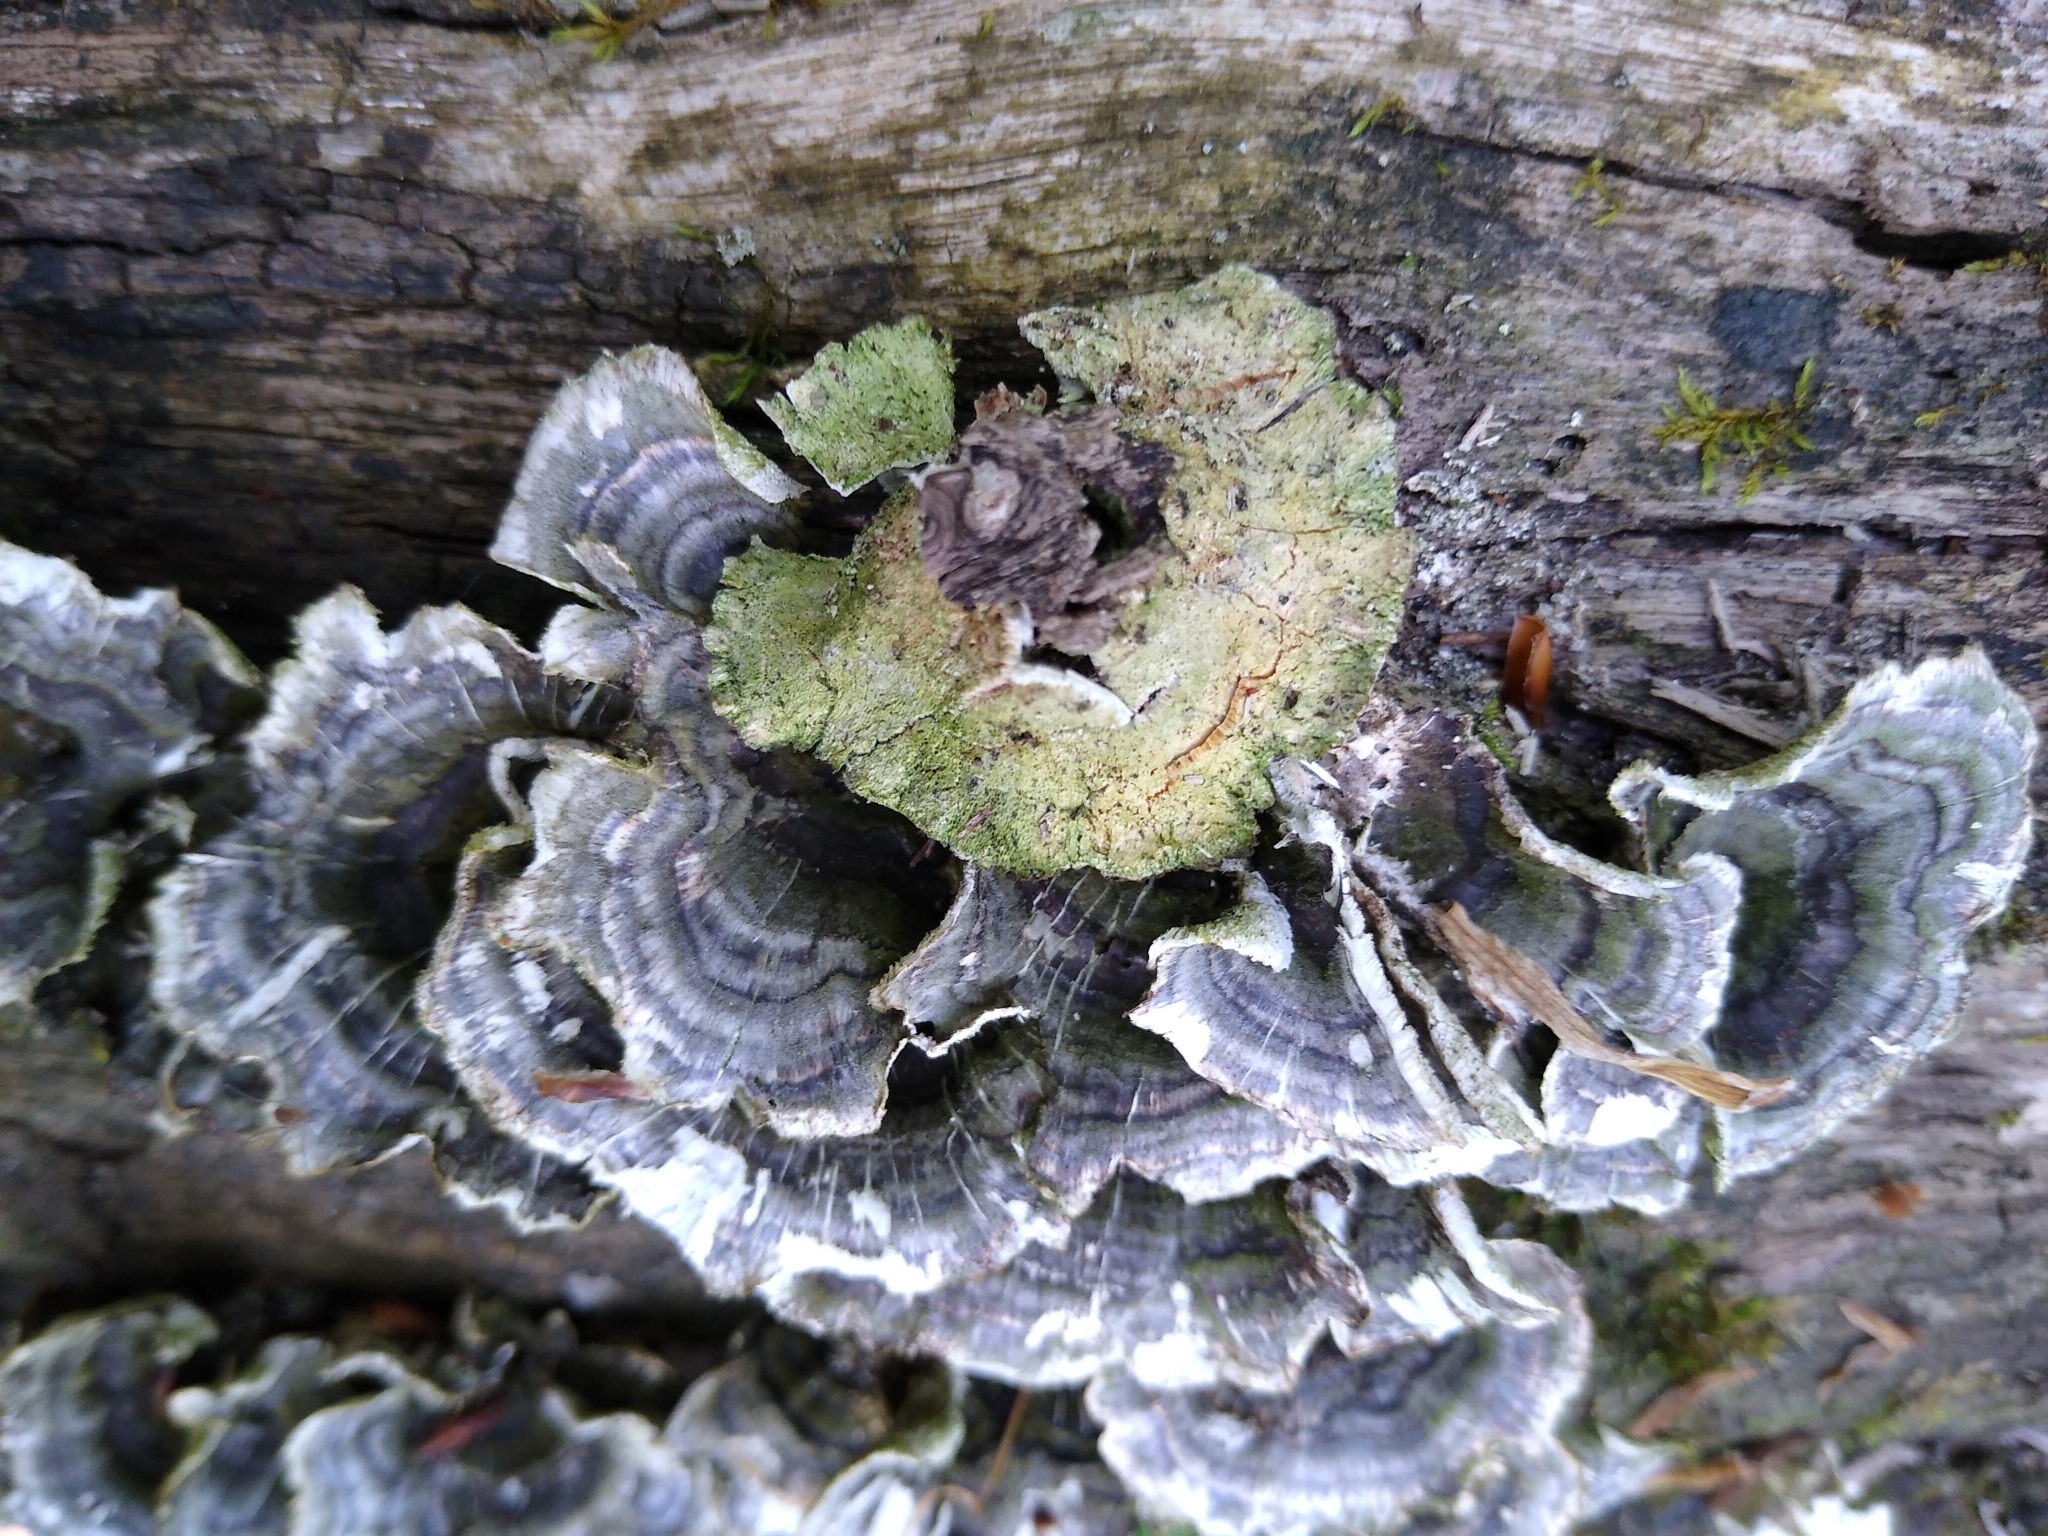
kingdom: Fungi
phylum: Basidiomycota
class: Agaricomycetes
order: Polyporales
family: Polyporaceae
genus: Trametes
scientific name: Trametes versicolor
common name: Turkeytail
